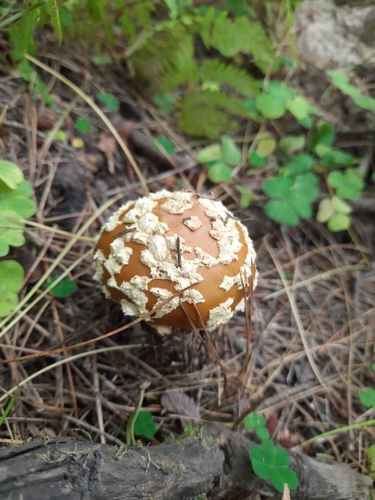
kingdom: Fungi
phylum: Basidiomycota
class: Agaricomycetes
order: Agaricales
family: Amanitaceae
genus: Amanita
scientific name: Amanita regalis
